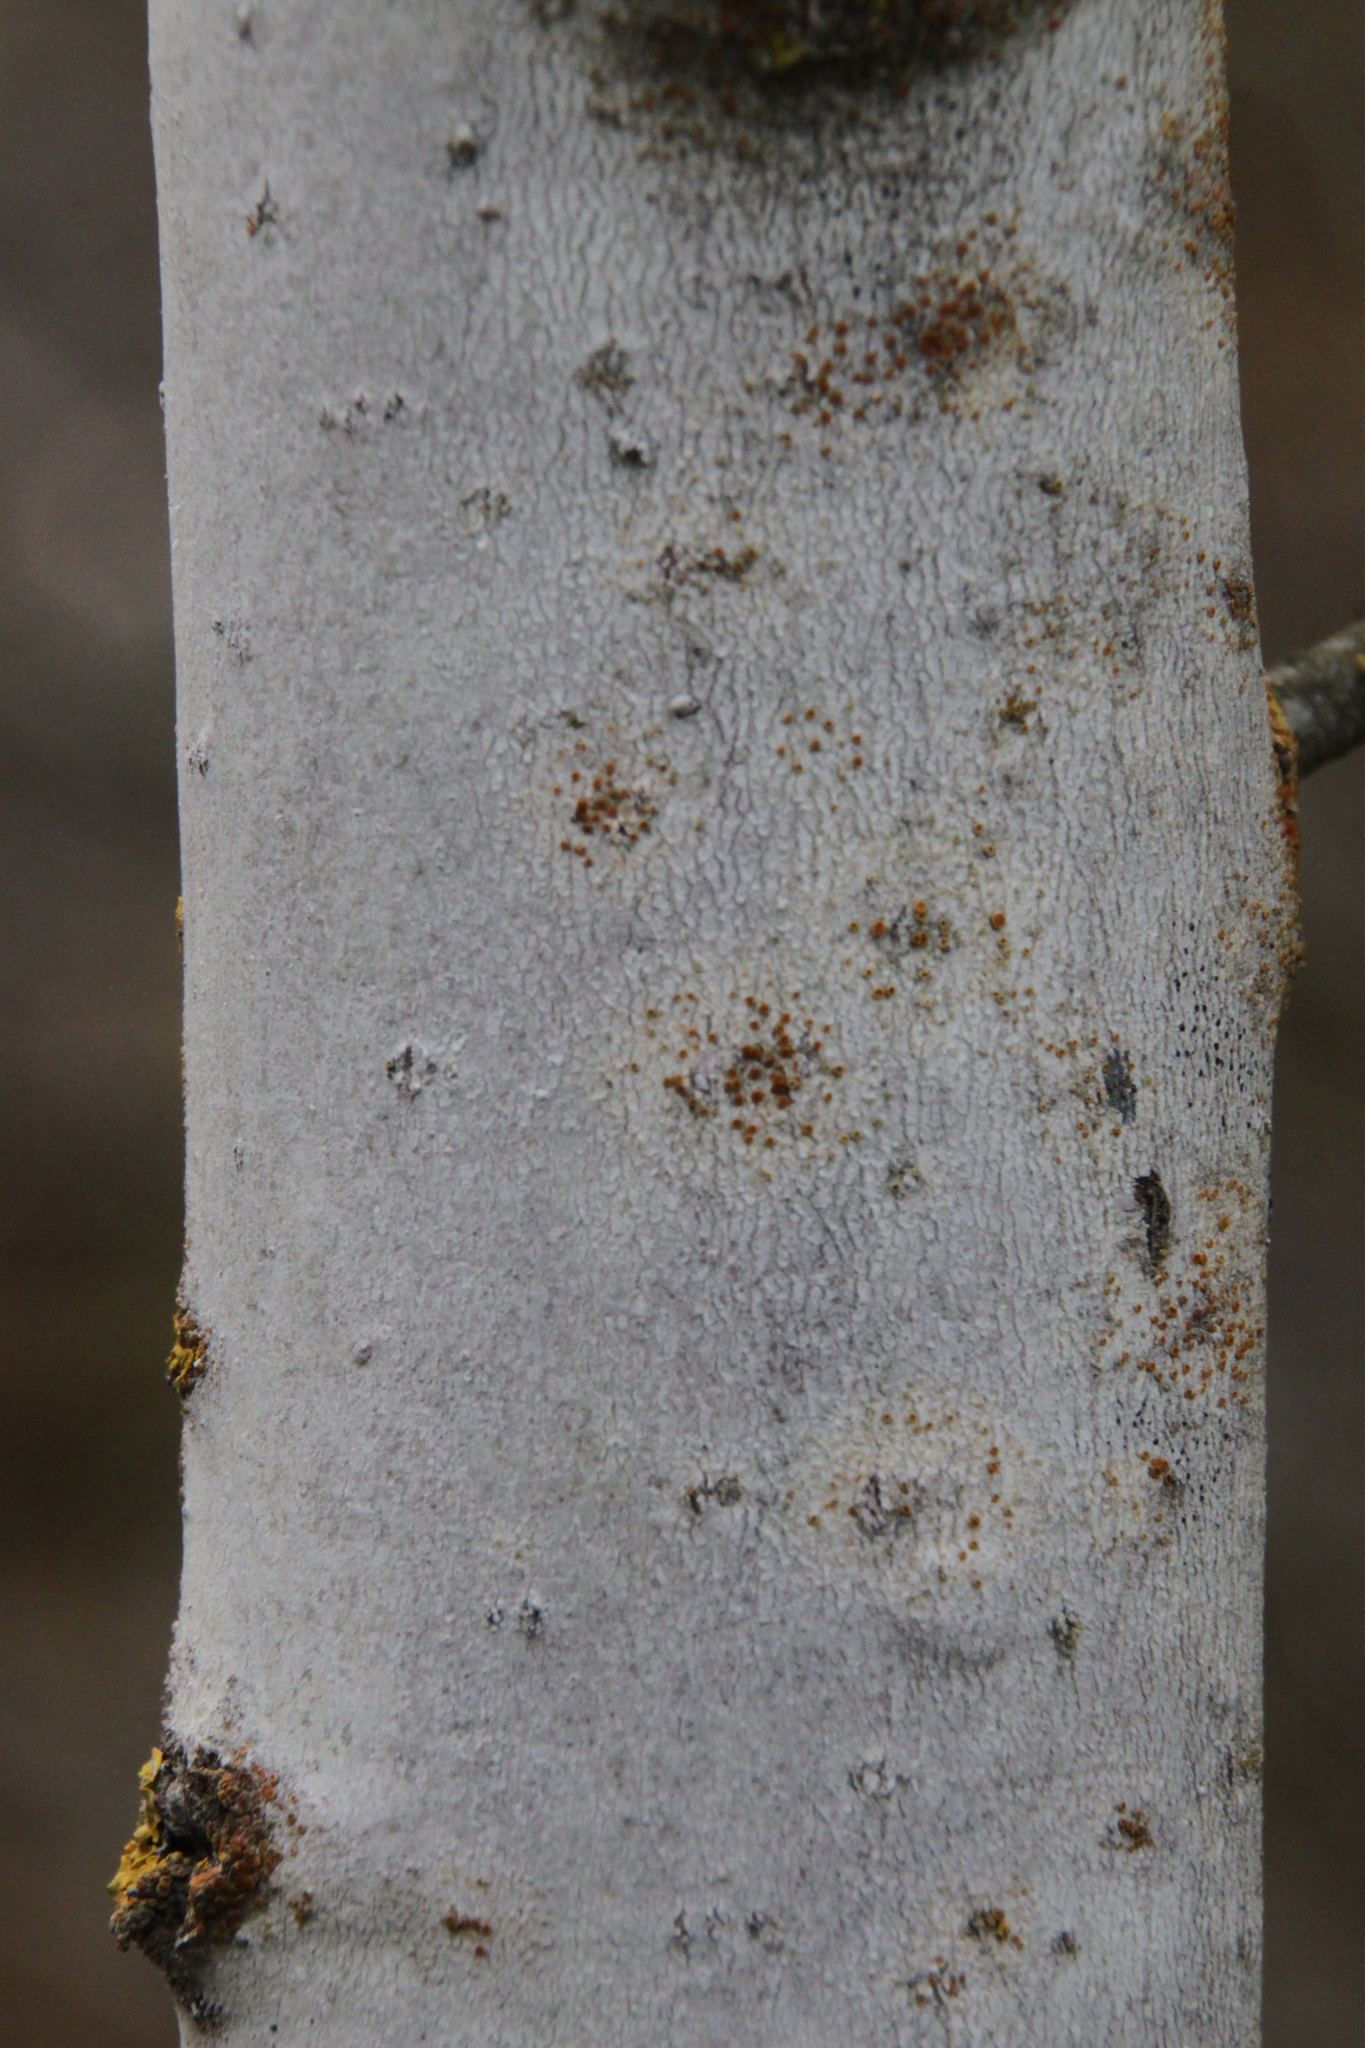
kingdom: Plantae
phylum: Tracheophyta
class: Magnoliopsida
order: Malpighiales
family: Salicaceae
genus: Populus
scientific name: Populus tremula
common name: European aspen
